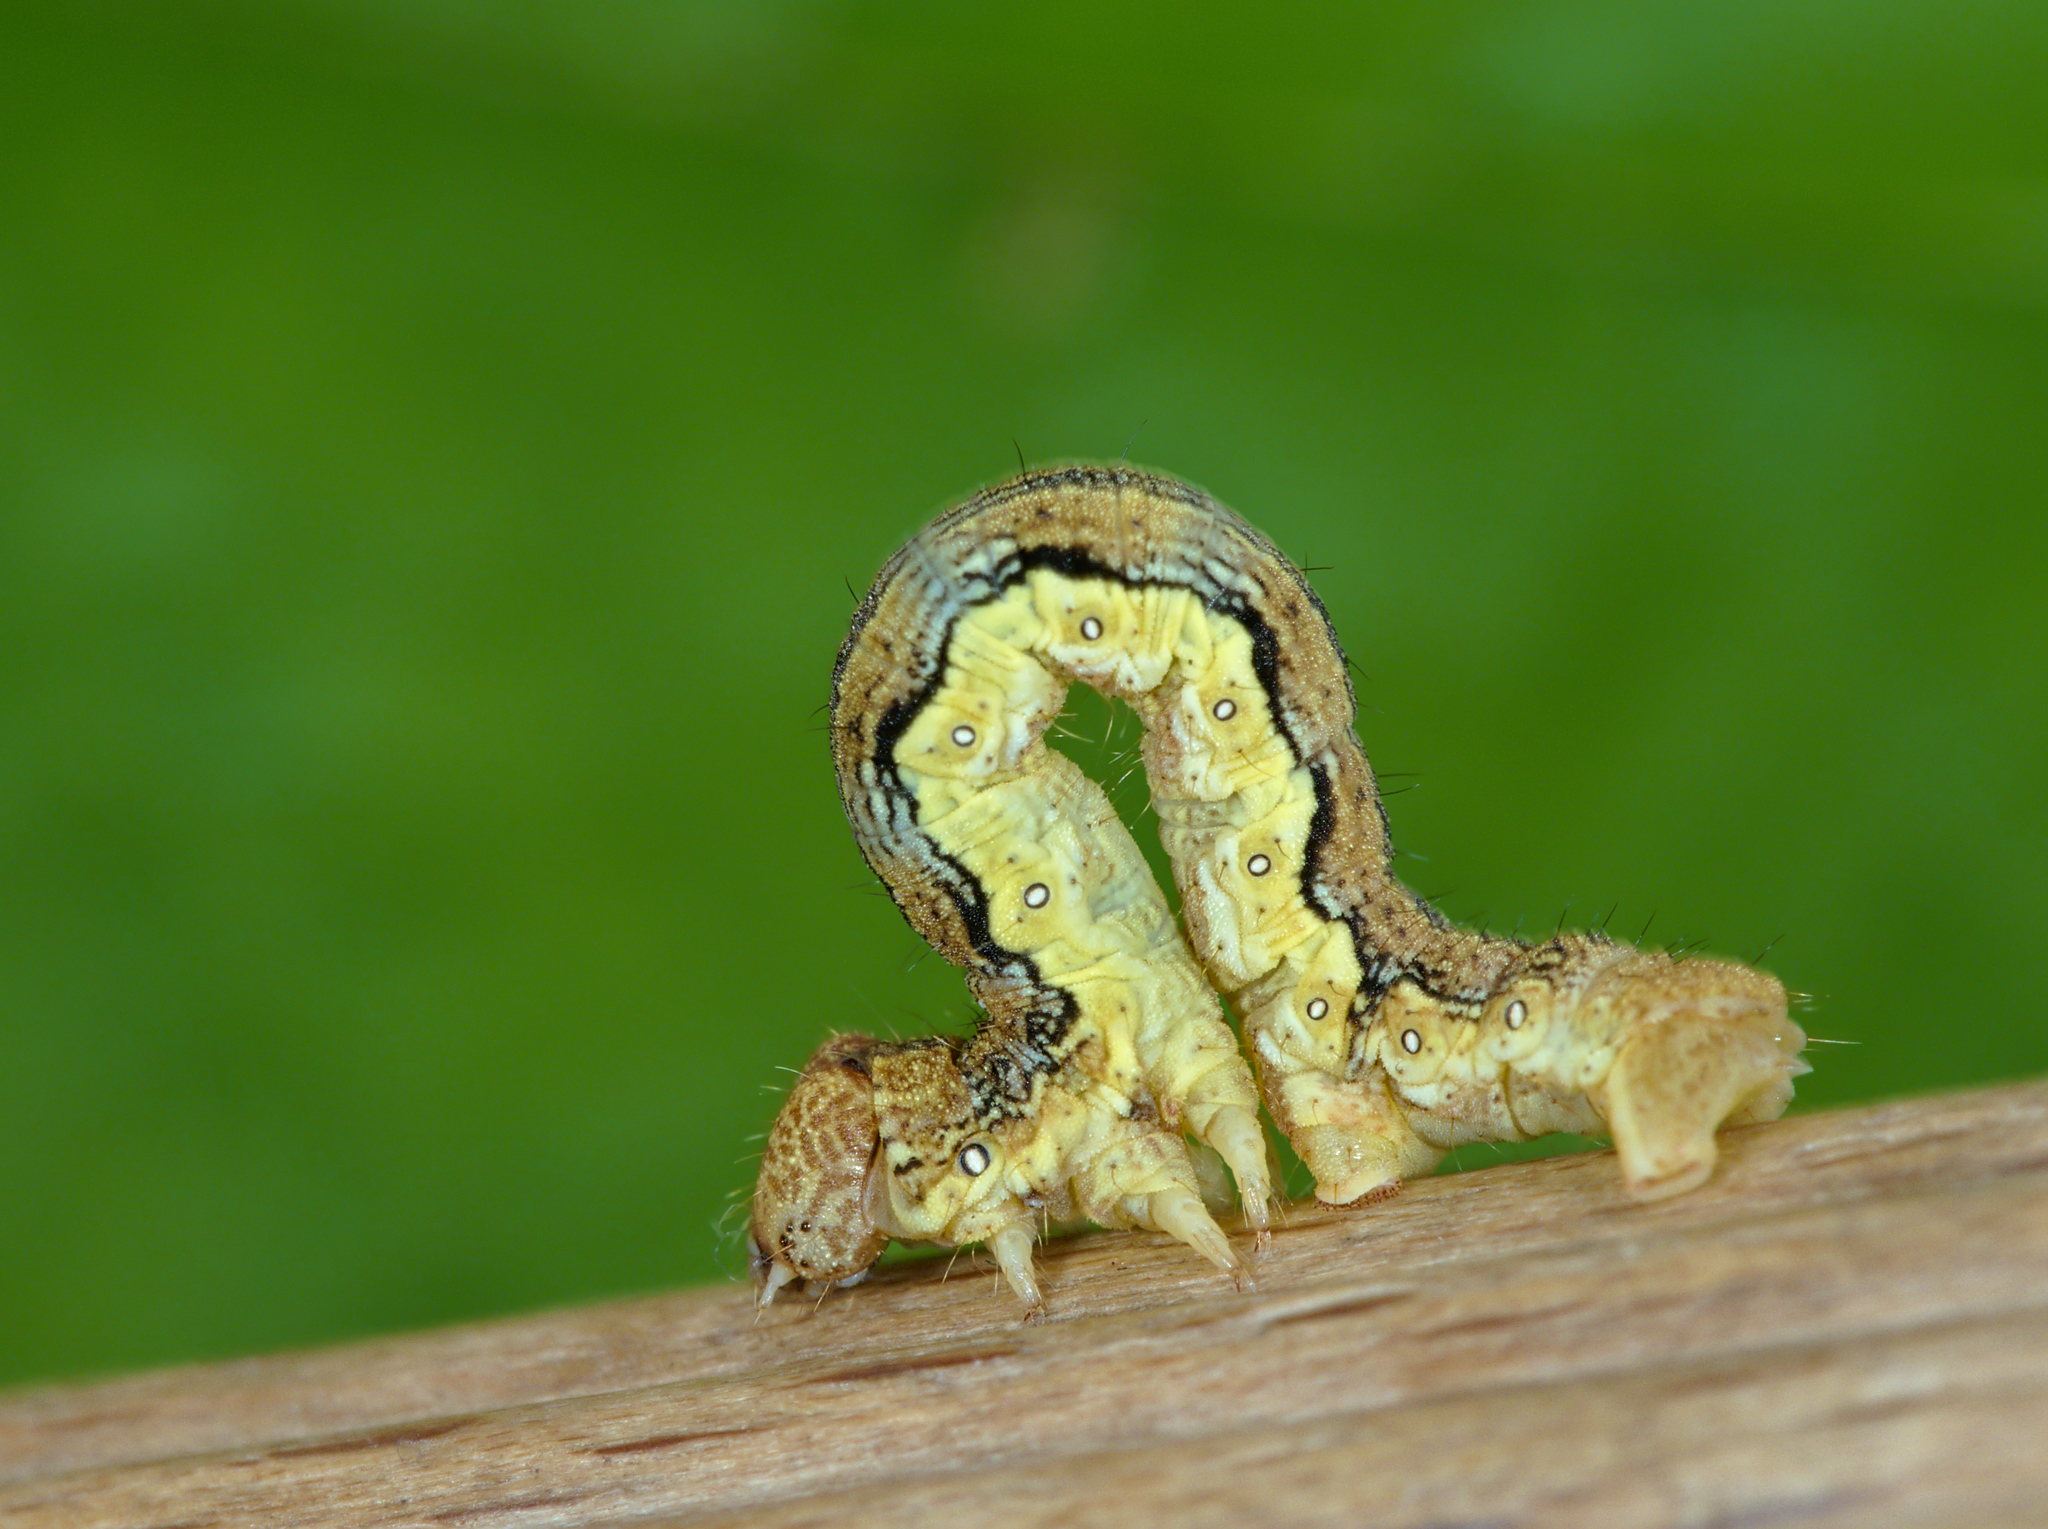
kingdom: Animalia
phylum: Arthropoda
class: Insecta
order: Lepidoptera
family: Geometridae
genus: Erannis
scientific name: Erannis defoliaria
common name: Mottled umber
